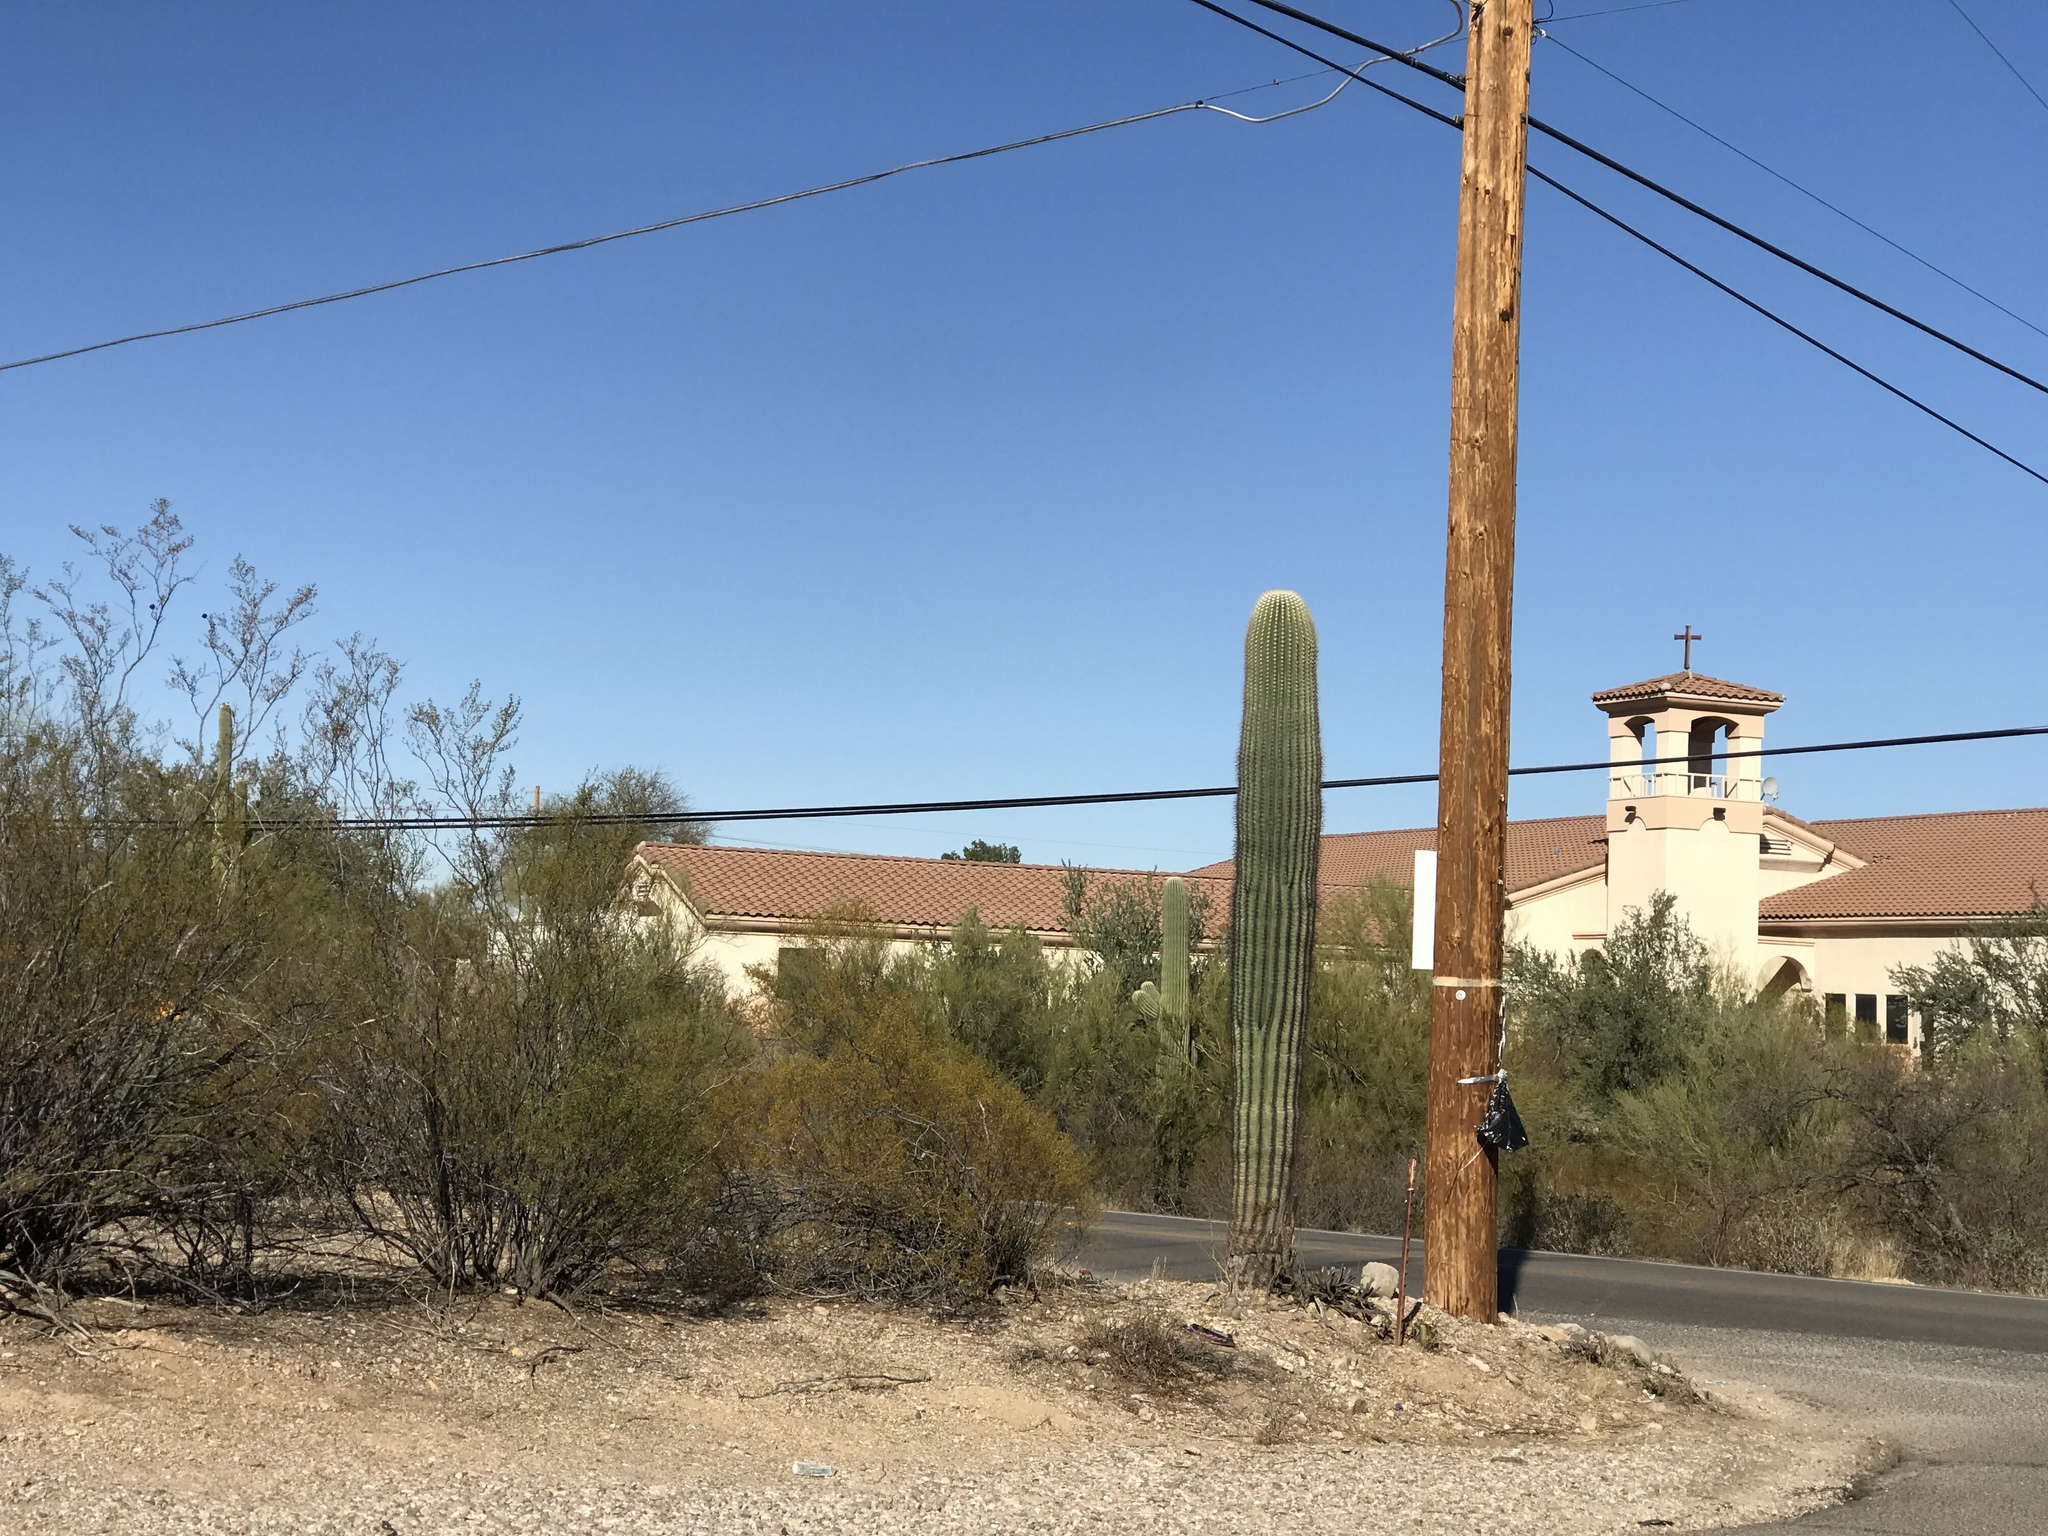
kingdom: Plantae
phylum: Tracheophyta
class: Magnoliopsida
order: Caryophyllales
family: Cactaceae
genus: Carnegiea
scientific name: Carnegiea gigantea
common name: Saguaro
